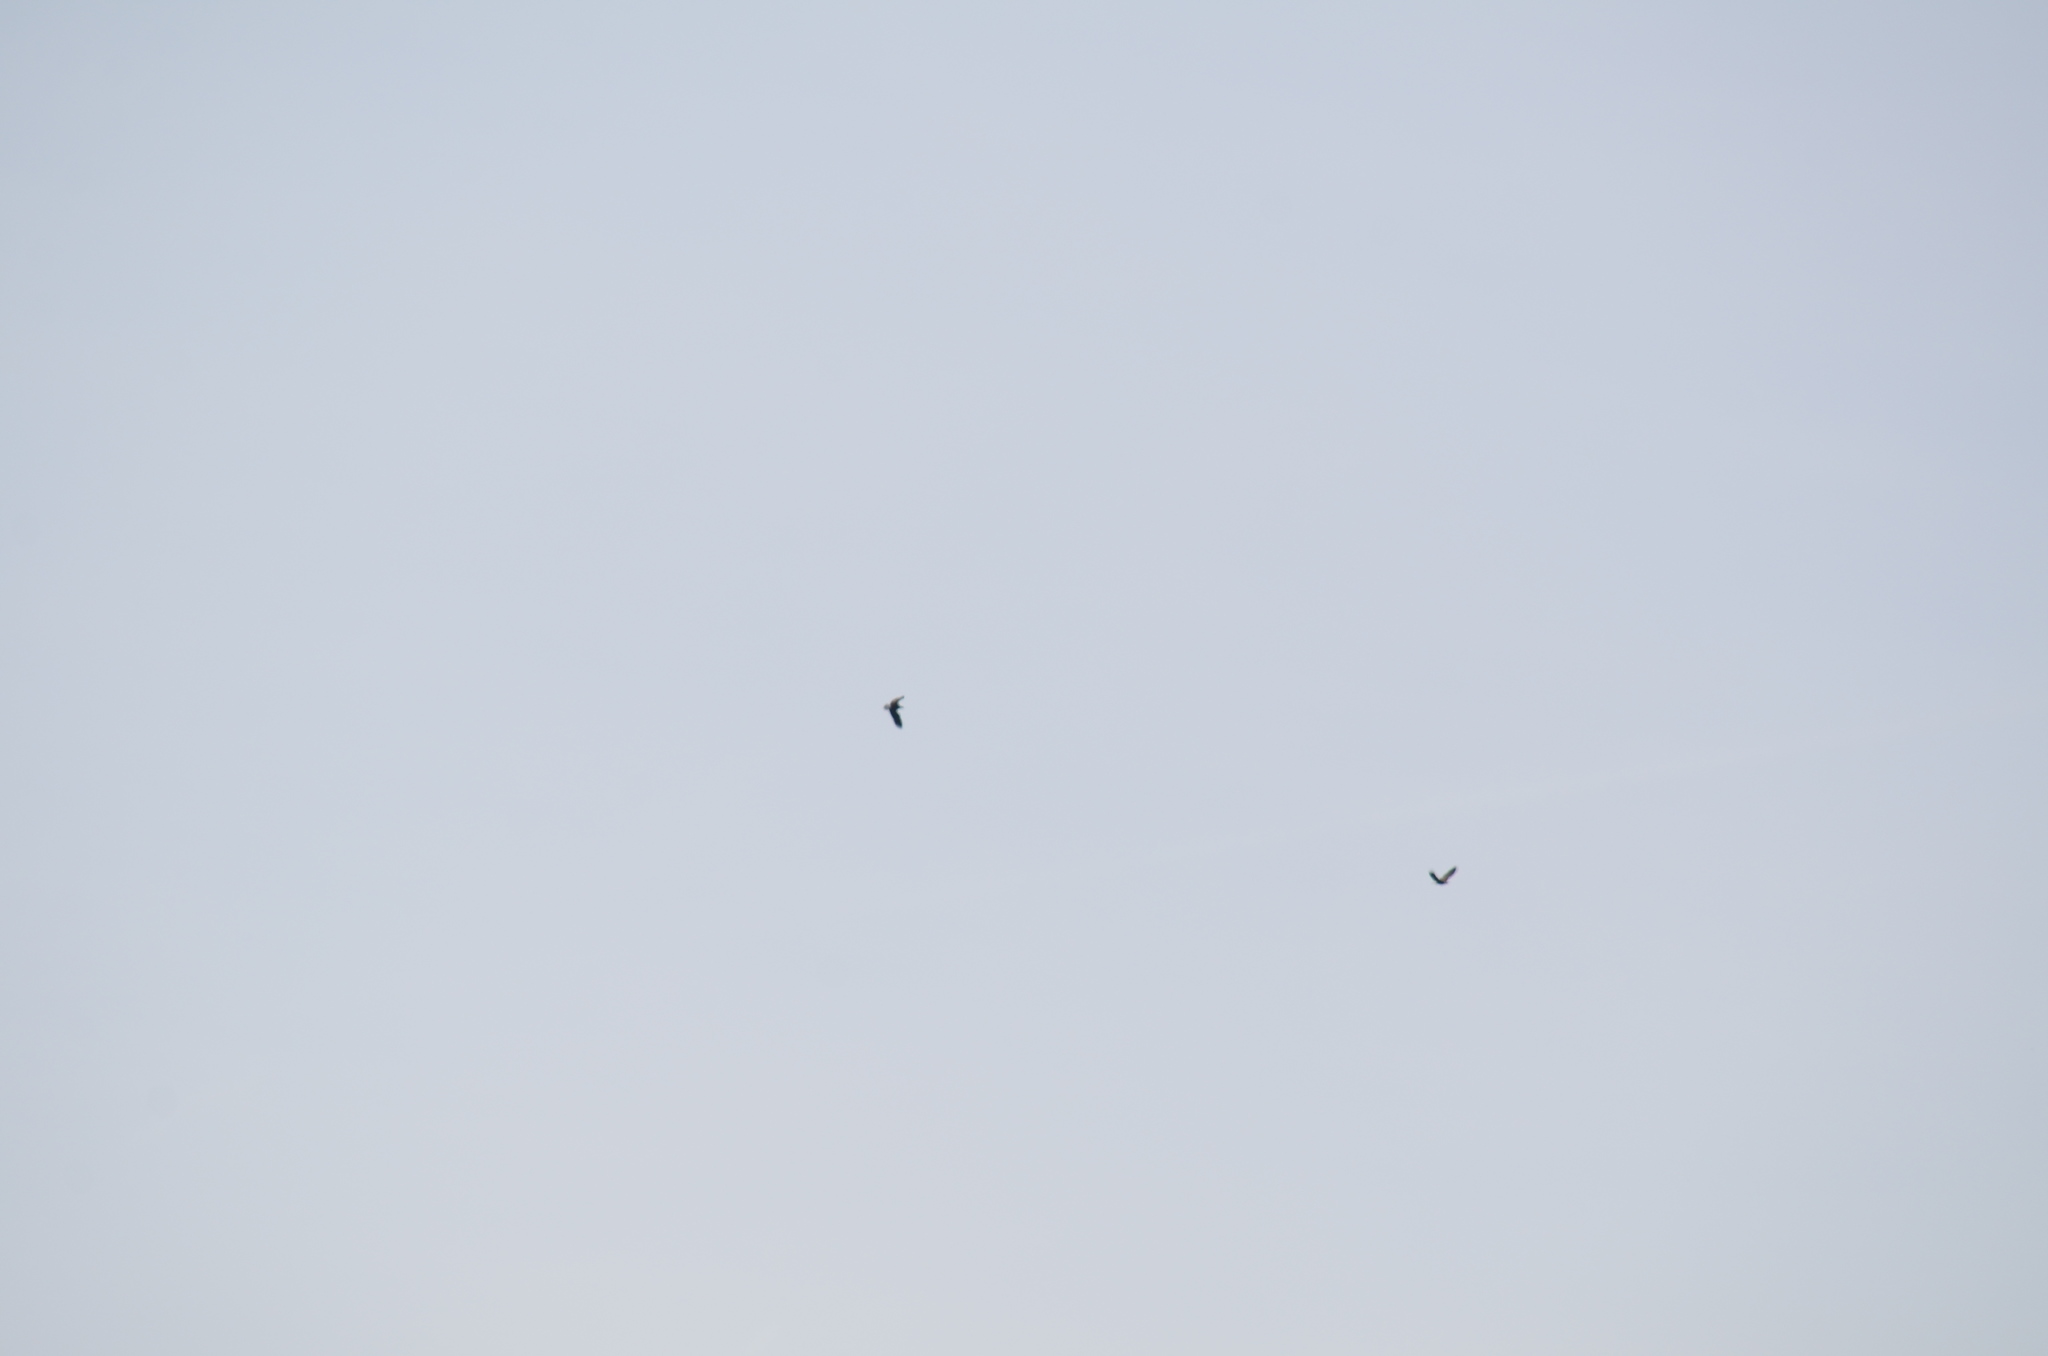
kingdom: Animalia
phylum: Chordata
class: Aves
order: Accipitriformes
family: Accipitridae
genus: Haliaeetus
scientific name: Haliaeetus leucocephalus
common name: Bald eagle
